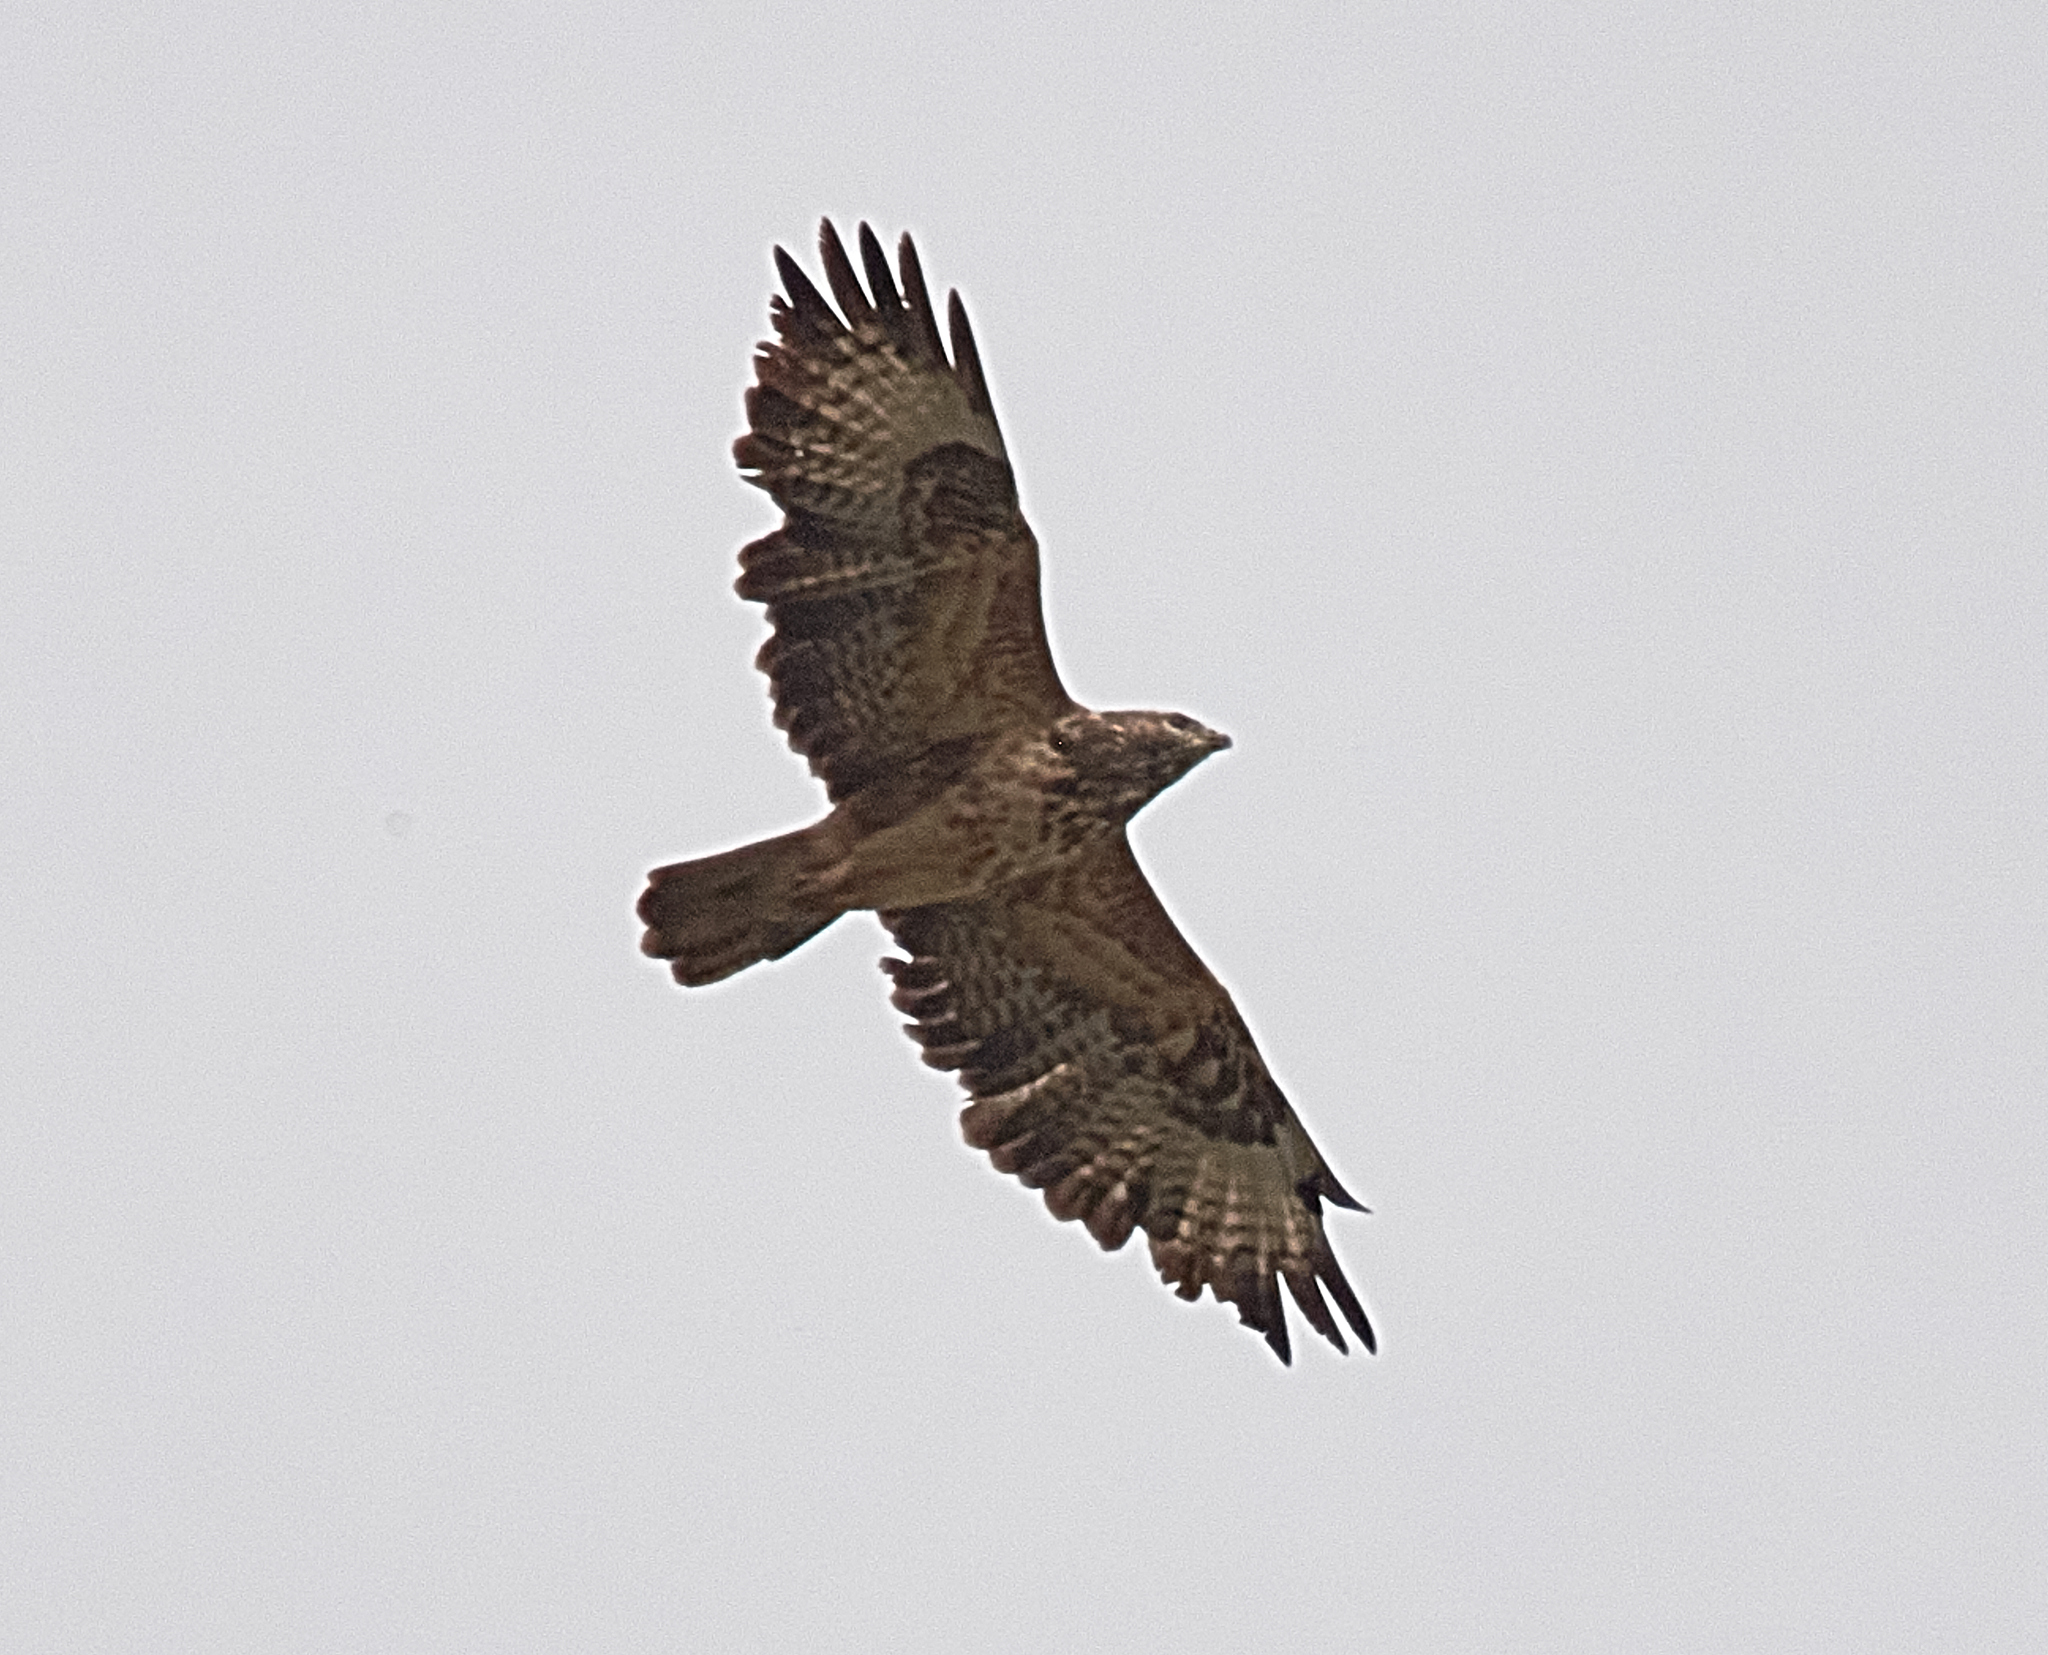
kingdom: Animalia
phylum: Chordata
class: Aves
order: Accipitriformes
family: Accipitridae
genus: Buteo
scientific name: Buteo buteo
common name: Common buzzard
